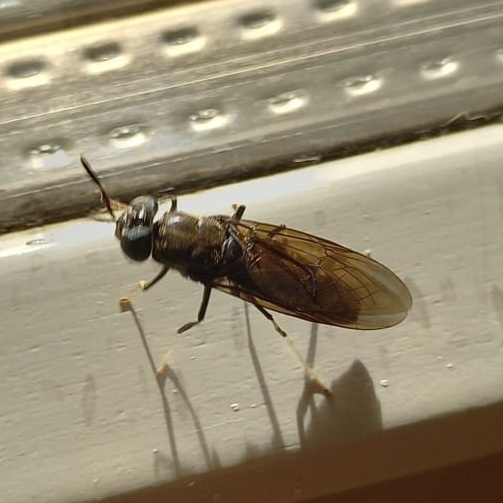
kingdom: Animalia
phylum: Arthropoda
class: Insecta
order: Diptera
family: Stratiomyidae
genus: Hermetia
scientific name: Hermetia illucens
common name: Black soldier fly
